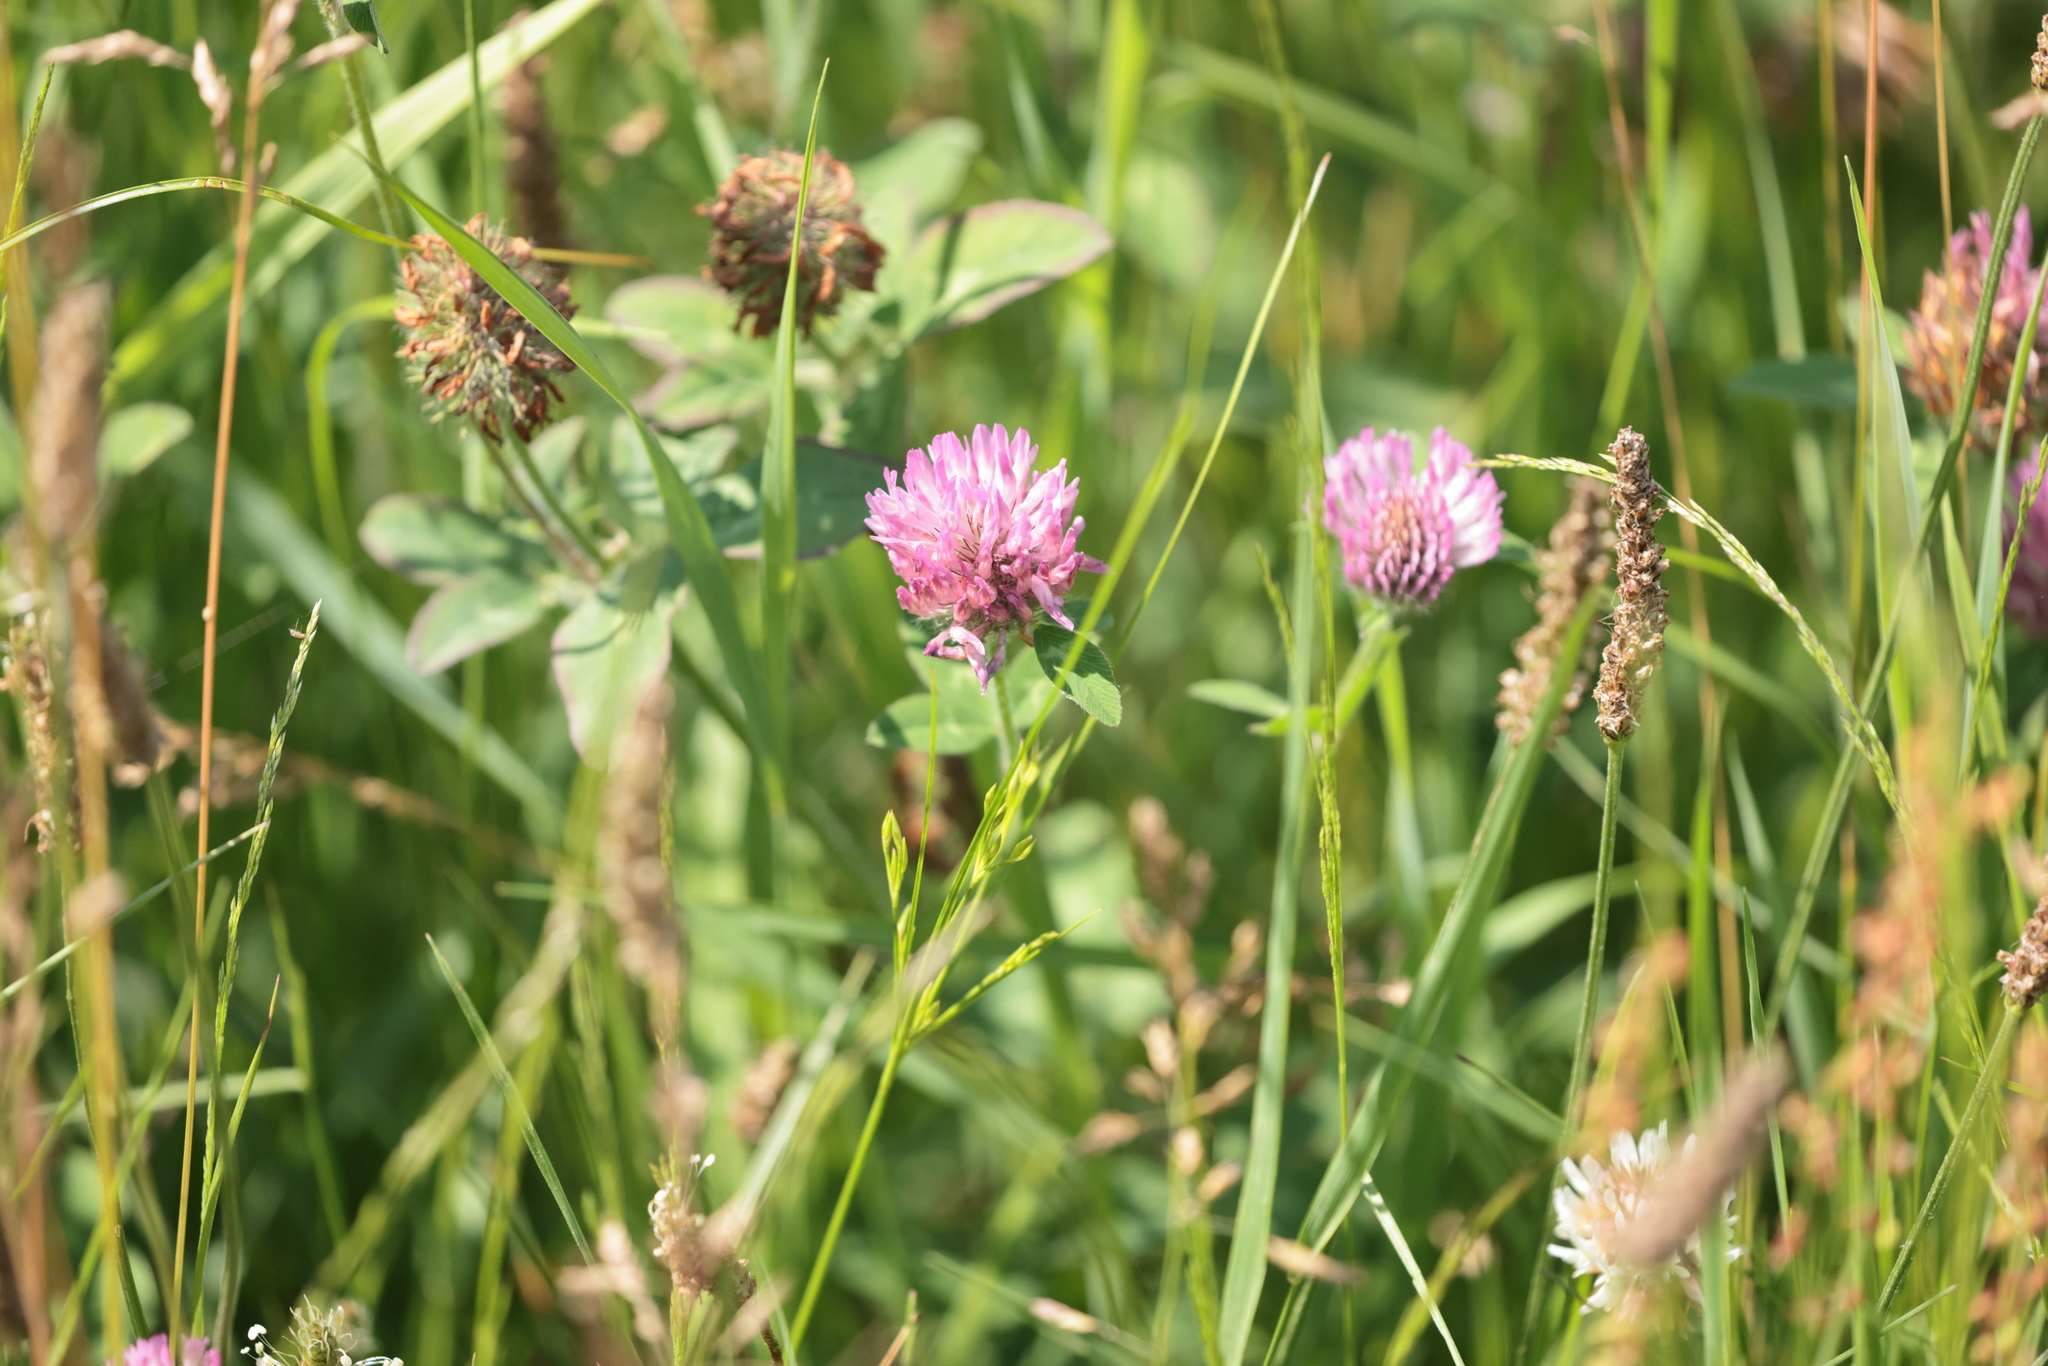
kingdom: Plantae
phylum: Tracheophyta
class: Magnoliopsida
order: Fabales
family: Fabaceae
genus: Trifolium
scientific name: Trifolium pratense
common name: Red clover
